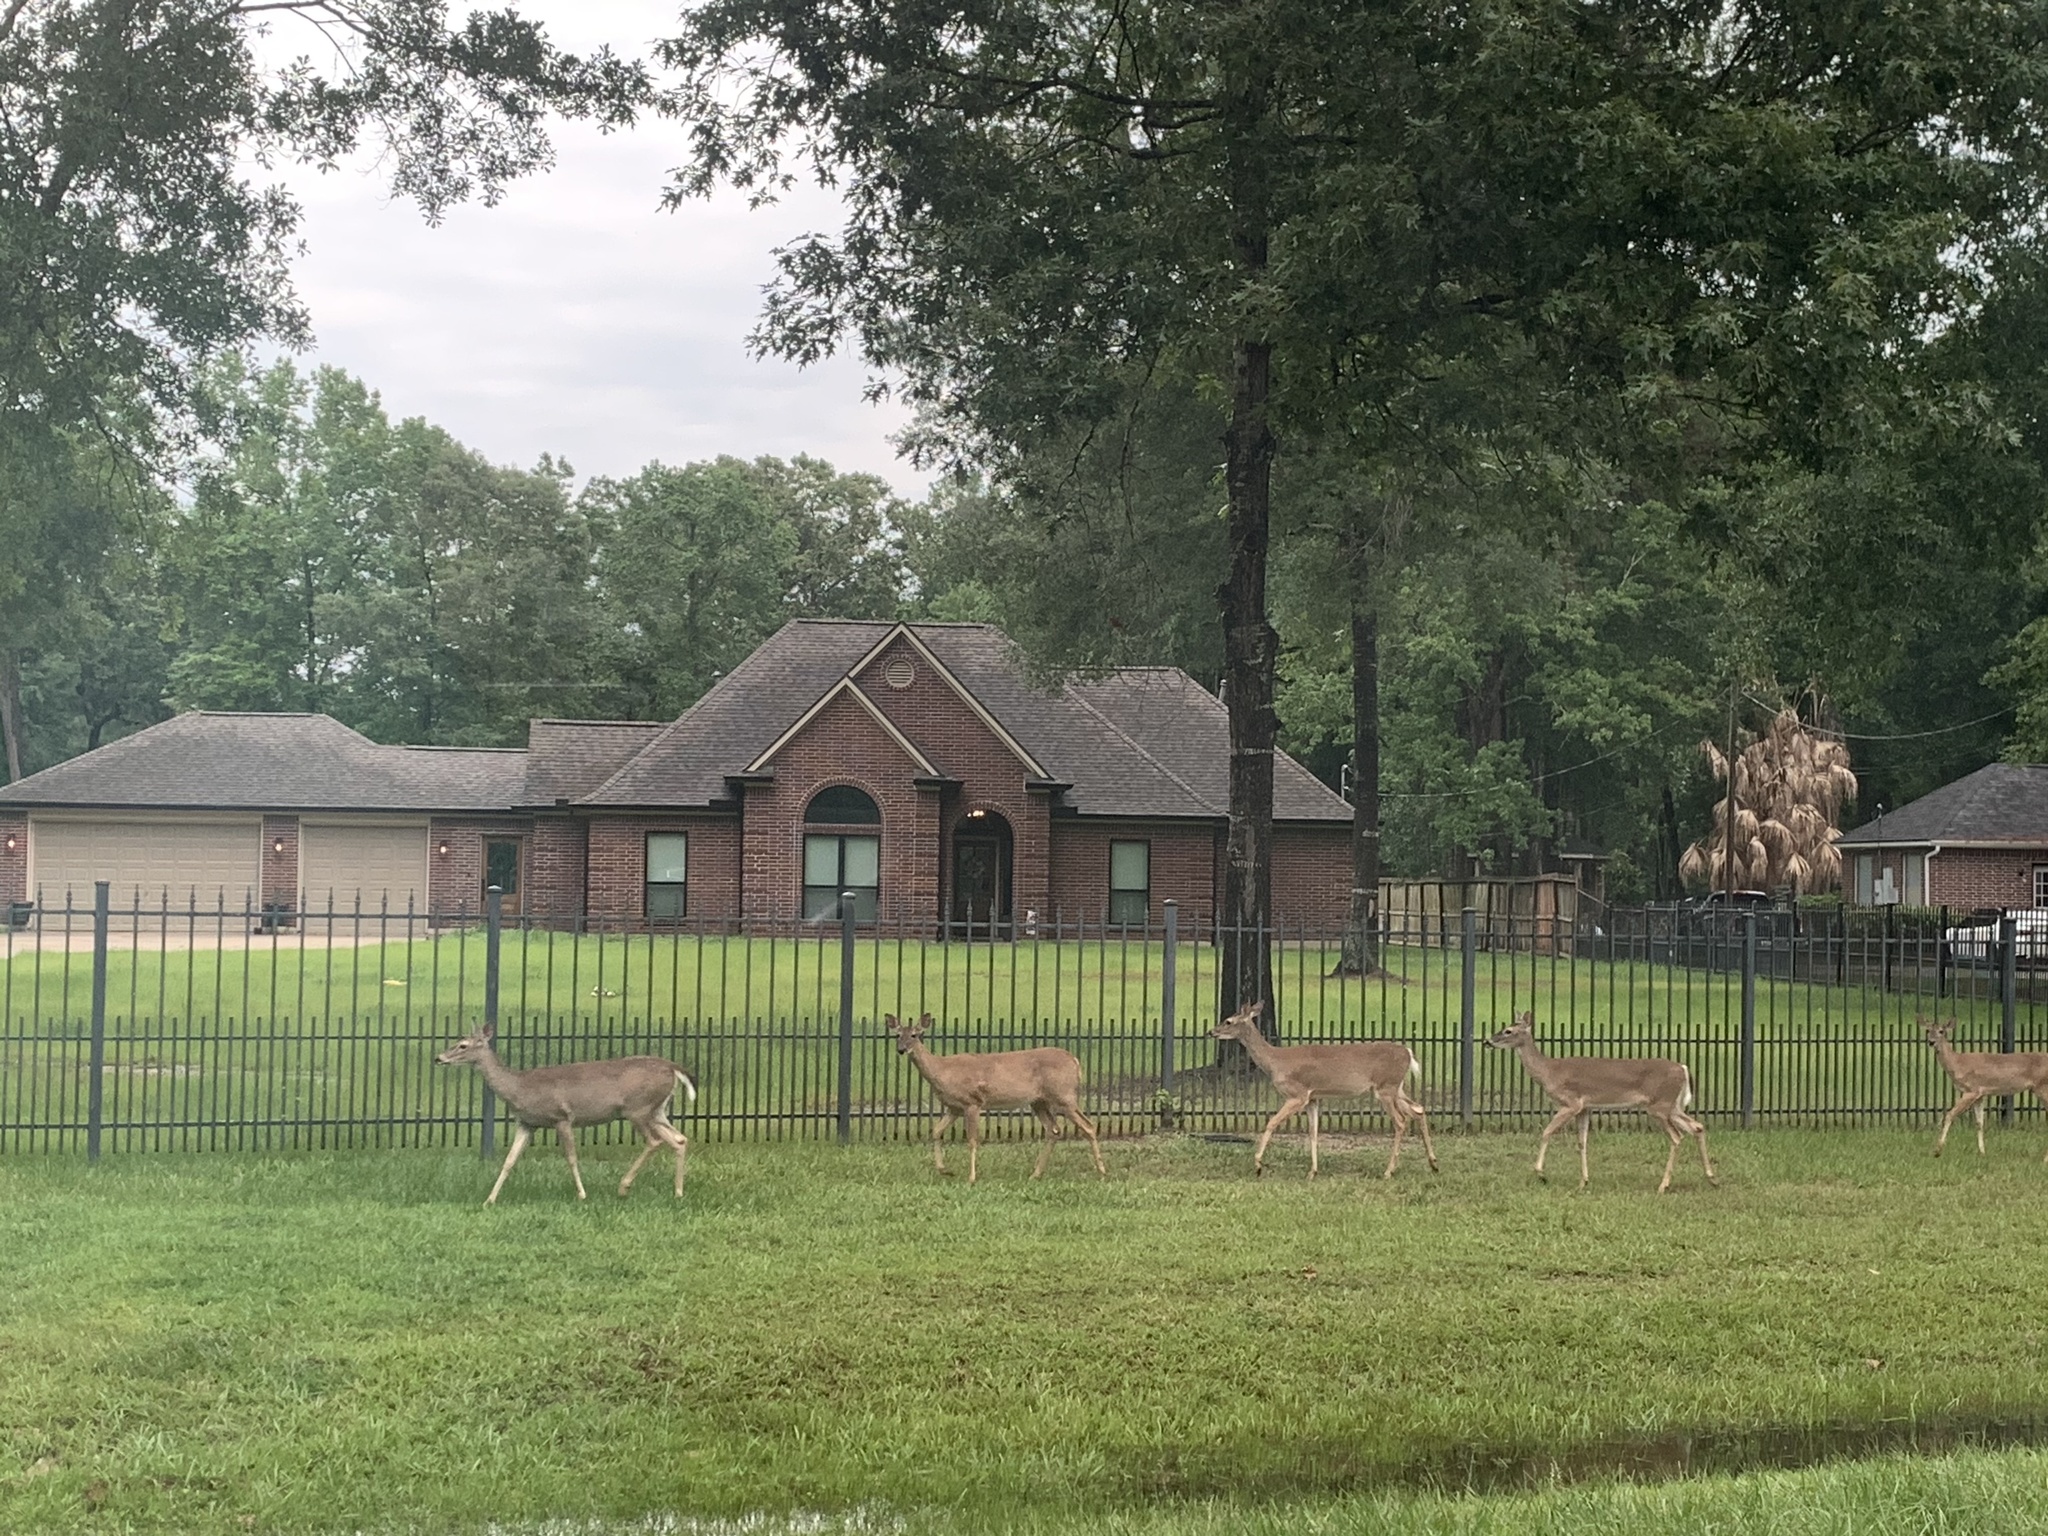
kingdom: Animalia
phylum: Chordata
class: Mammalia
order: Artiodactyla
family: Cervidae
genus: Odocoileus
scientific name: Odocoileus virginianus
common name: White-tailed deer
